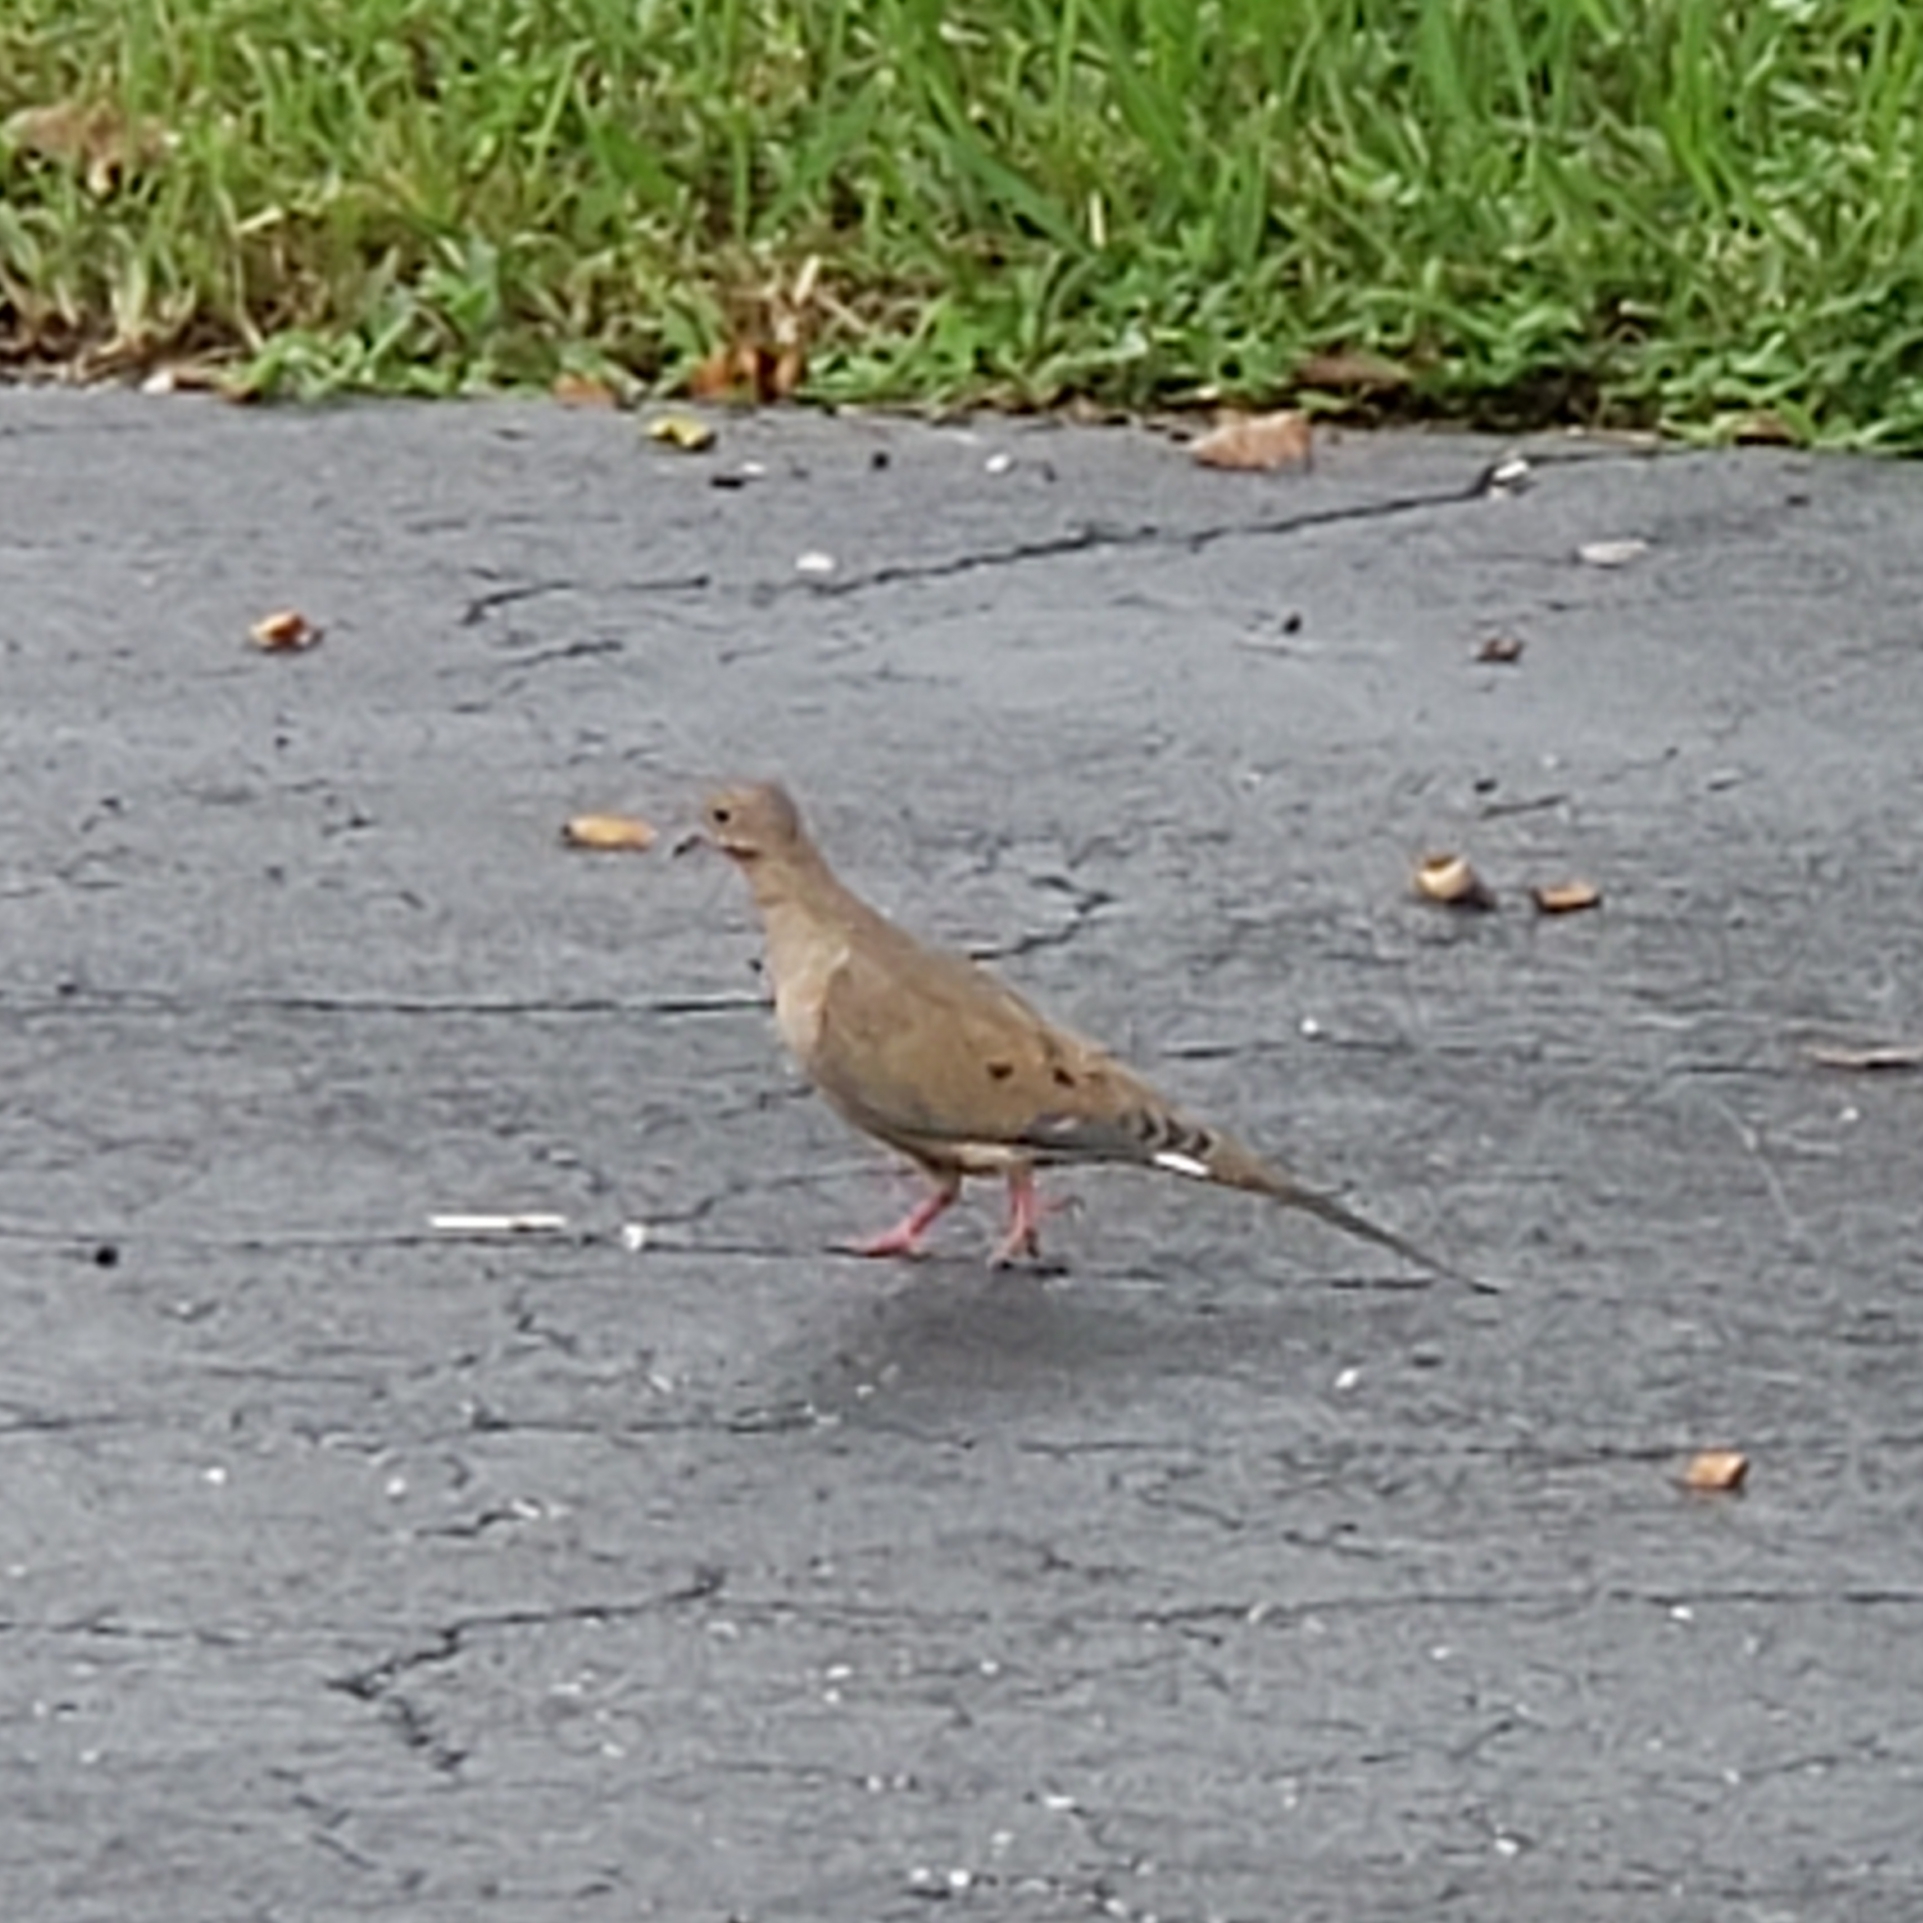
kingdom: Animalia
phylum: Chordata
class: Aves
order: Columbiformes
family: Columbidae
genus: Zenaida
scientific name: Zenaida macroura
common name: Mourning dove
